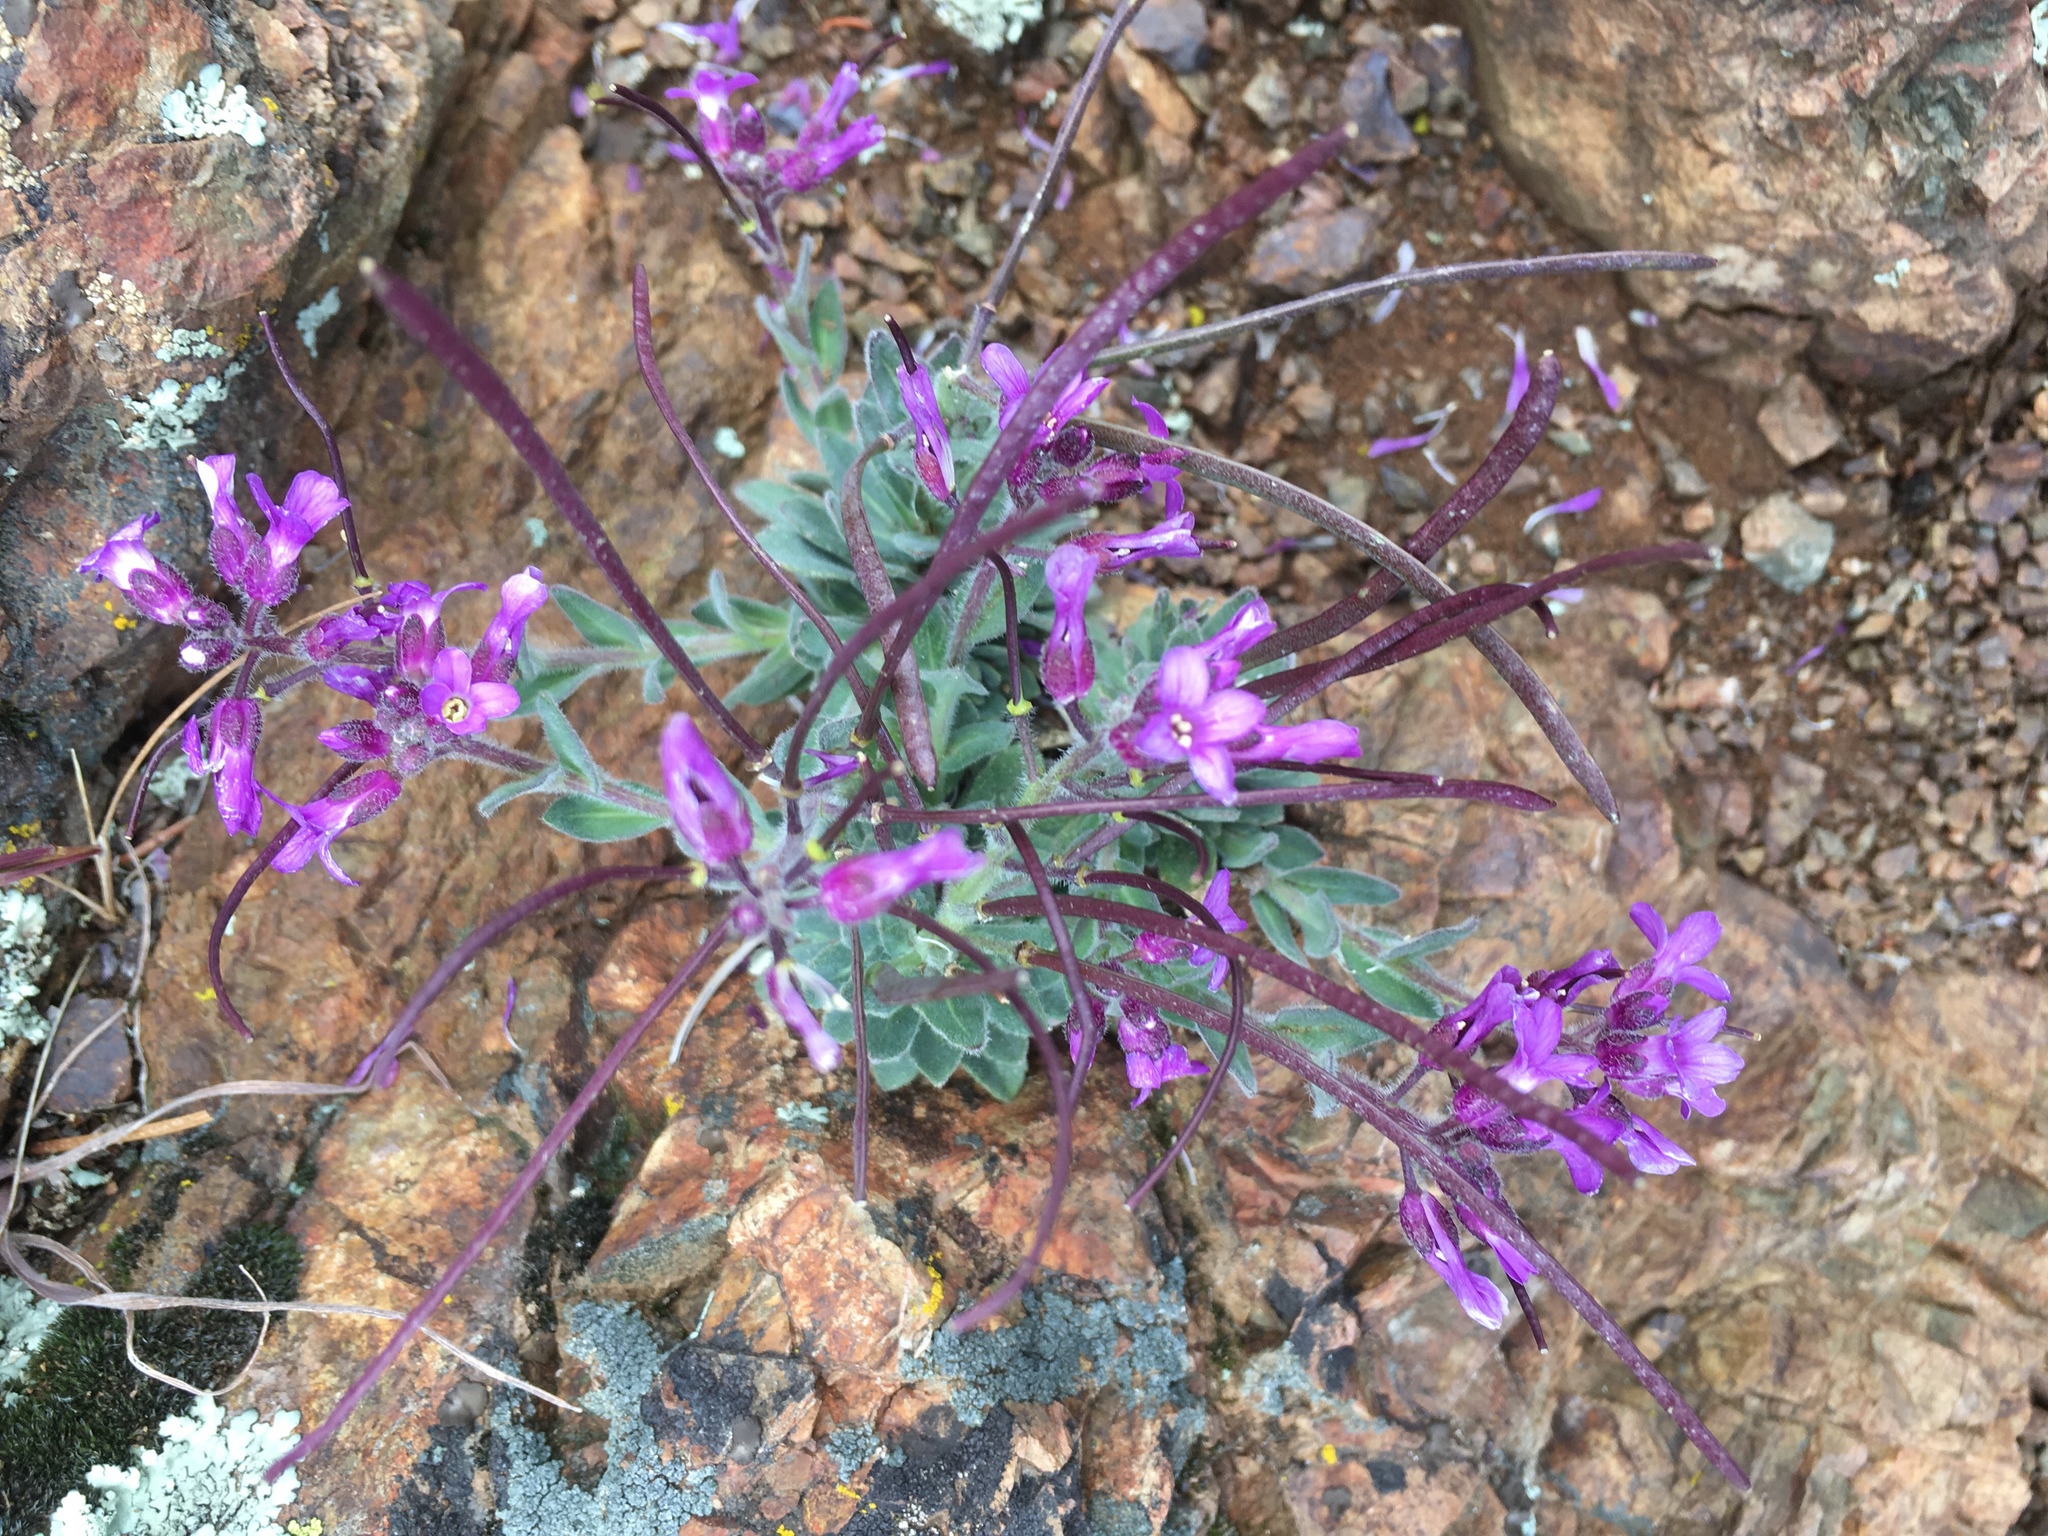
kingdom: Plantae
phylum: Tracheophyta
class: Magnoliopsida
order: Brassicales
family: Brassicaceae
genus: Boechera
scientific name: Boechera breweri
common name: Brewer's rockcress
